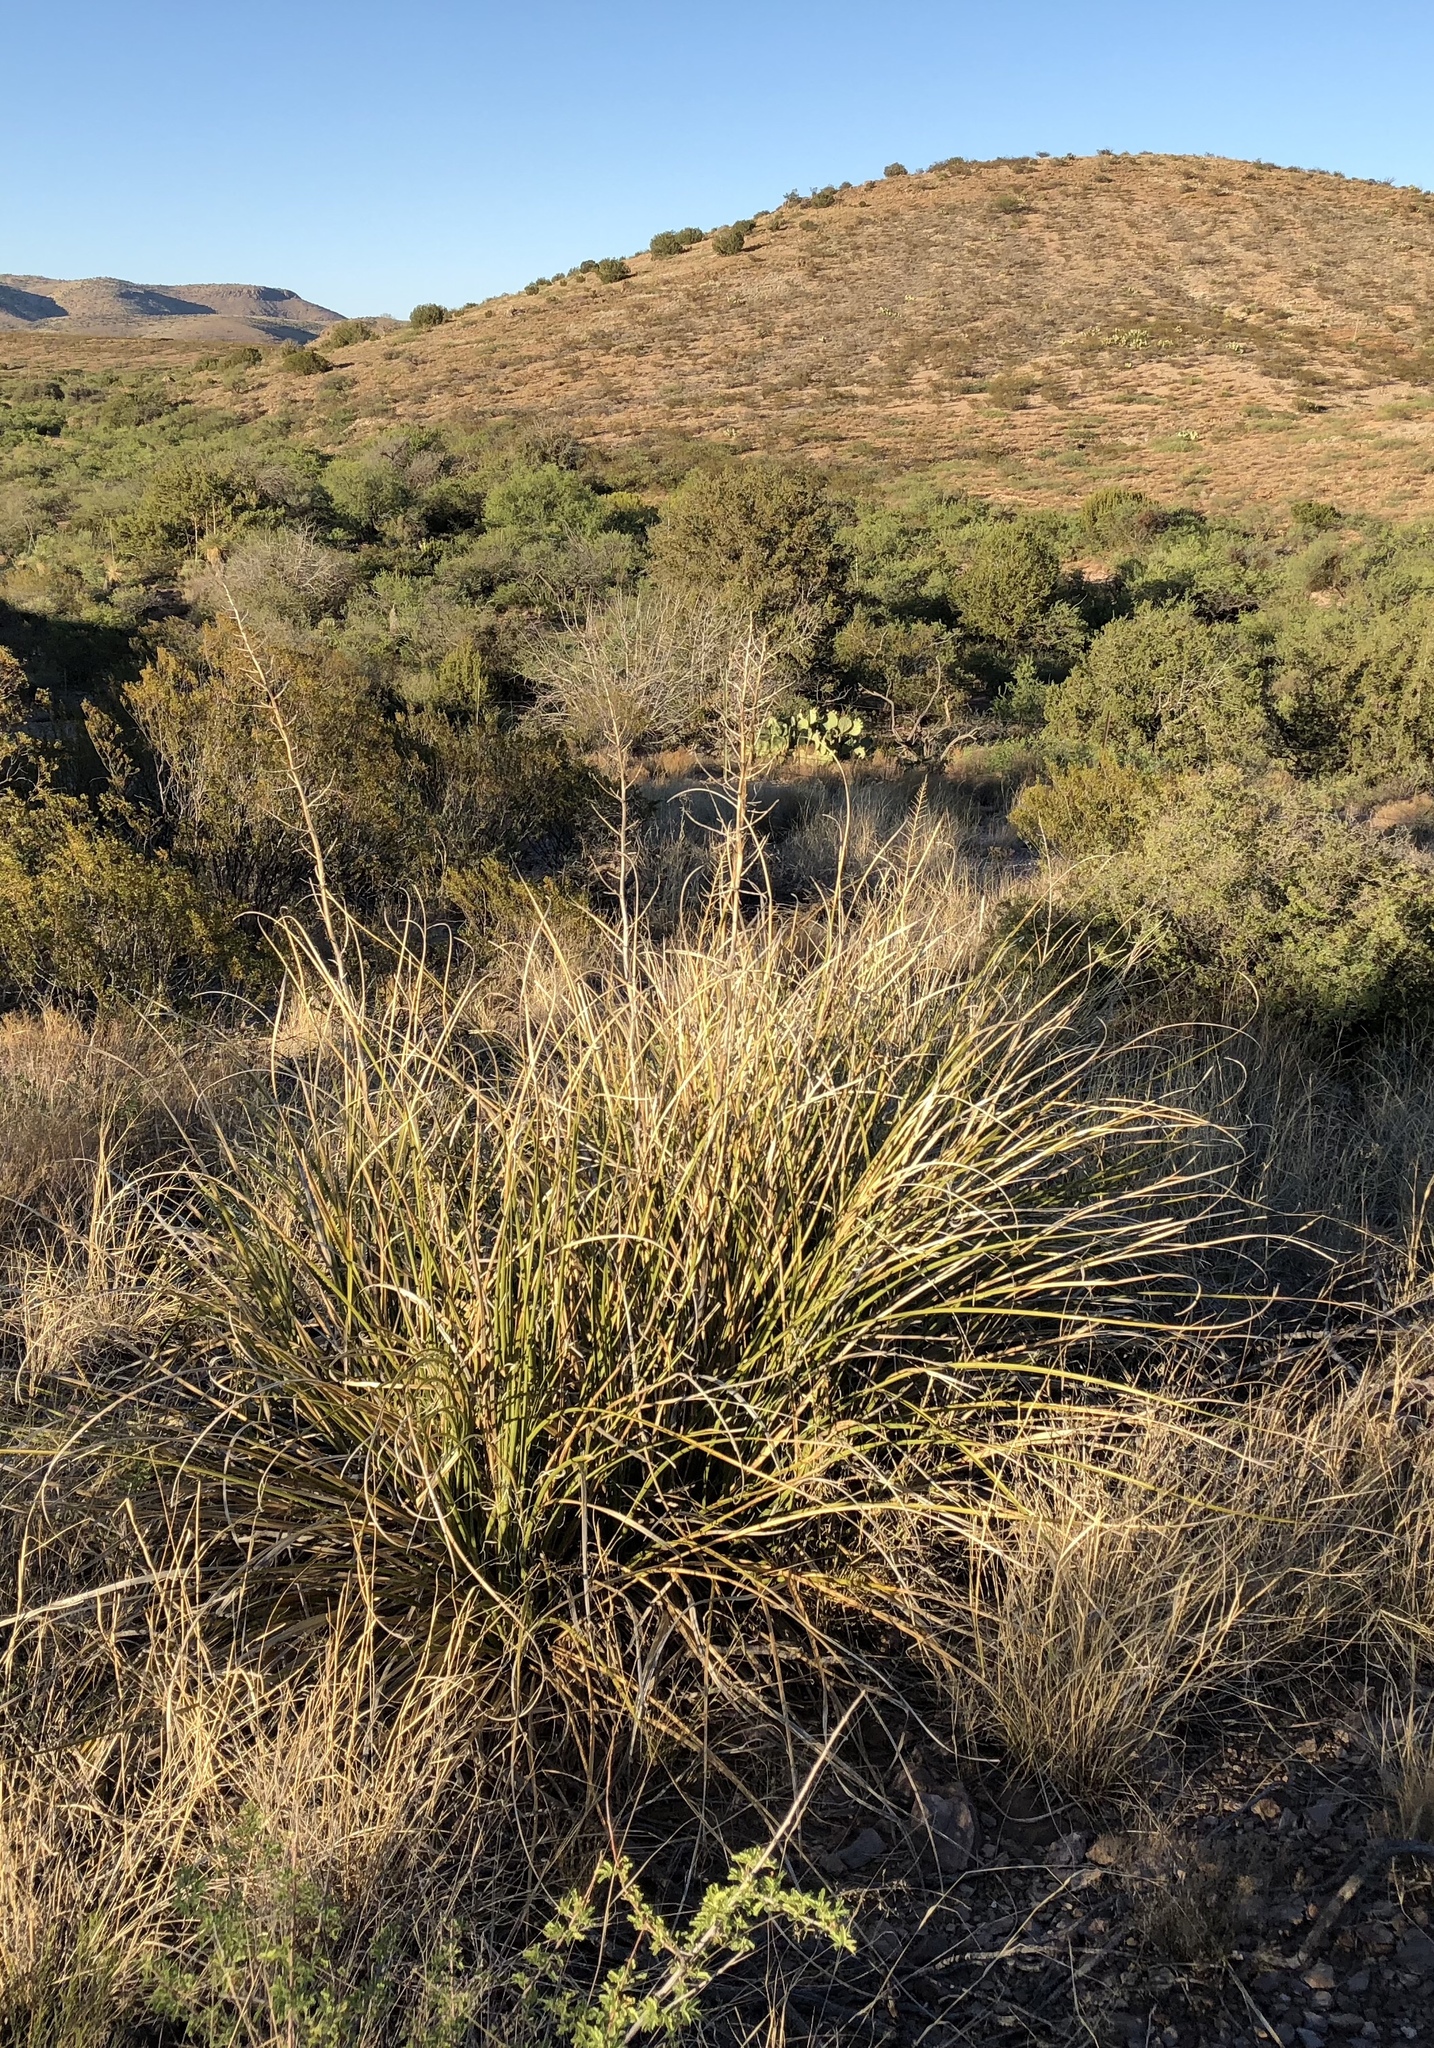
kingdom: Plantae
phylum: Tracheophyta
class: Liliopsida
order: Asparagales
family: Asparagaceae
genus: Nolina
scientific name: Nolina microcarpa
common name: Bear-grass
